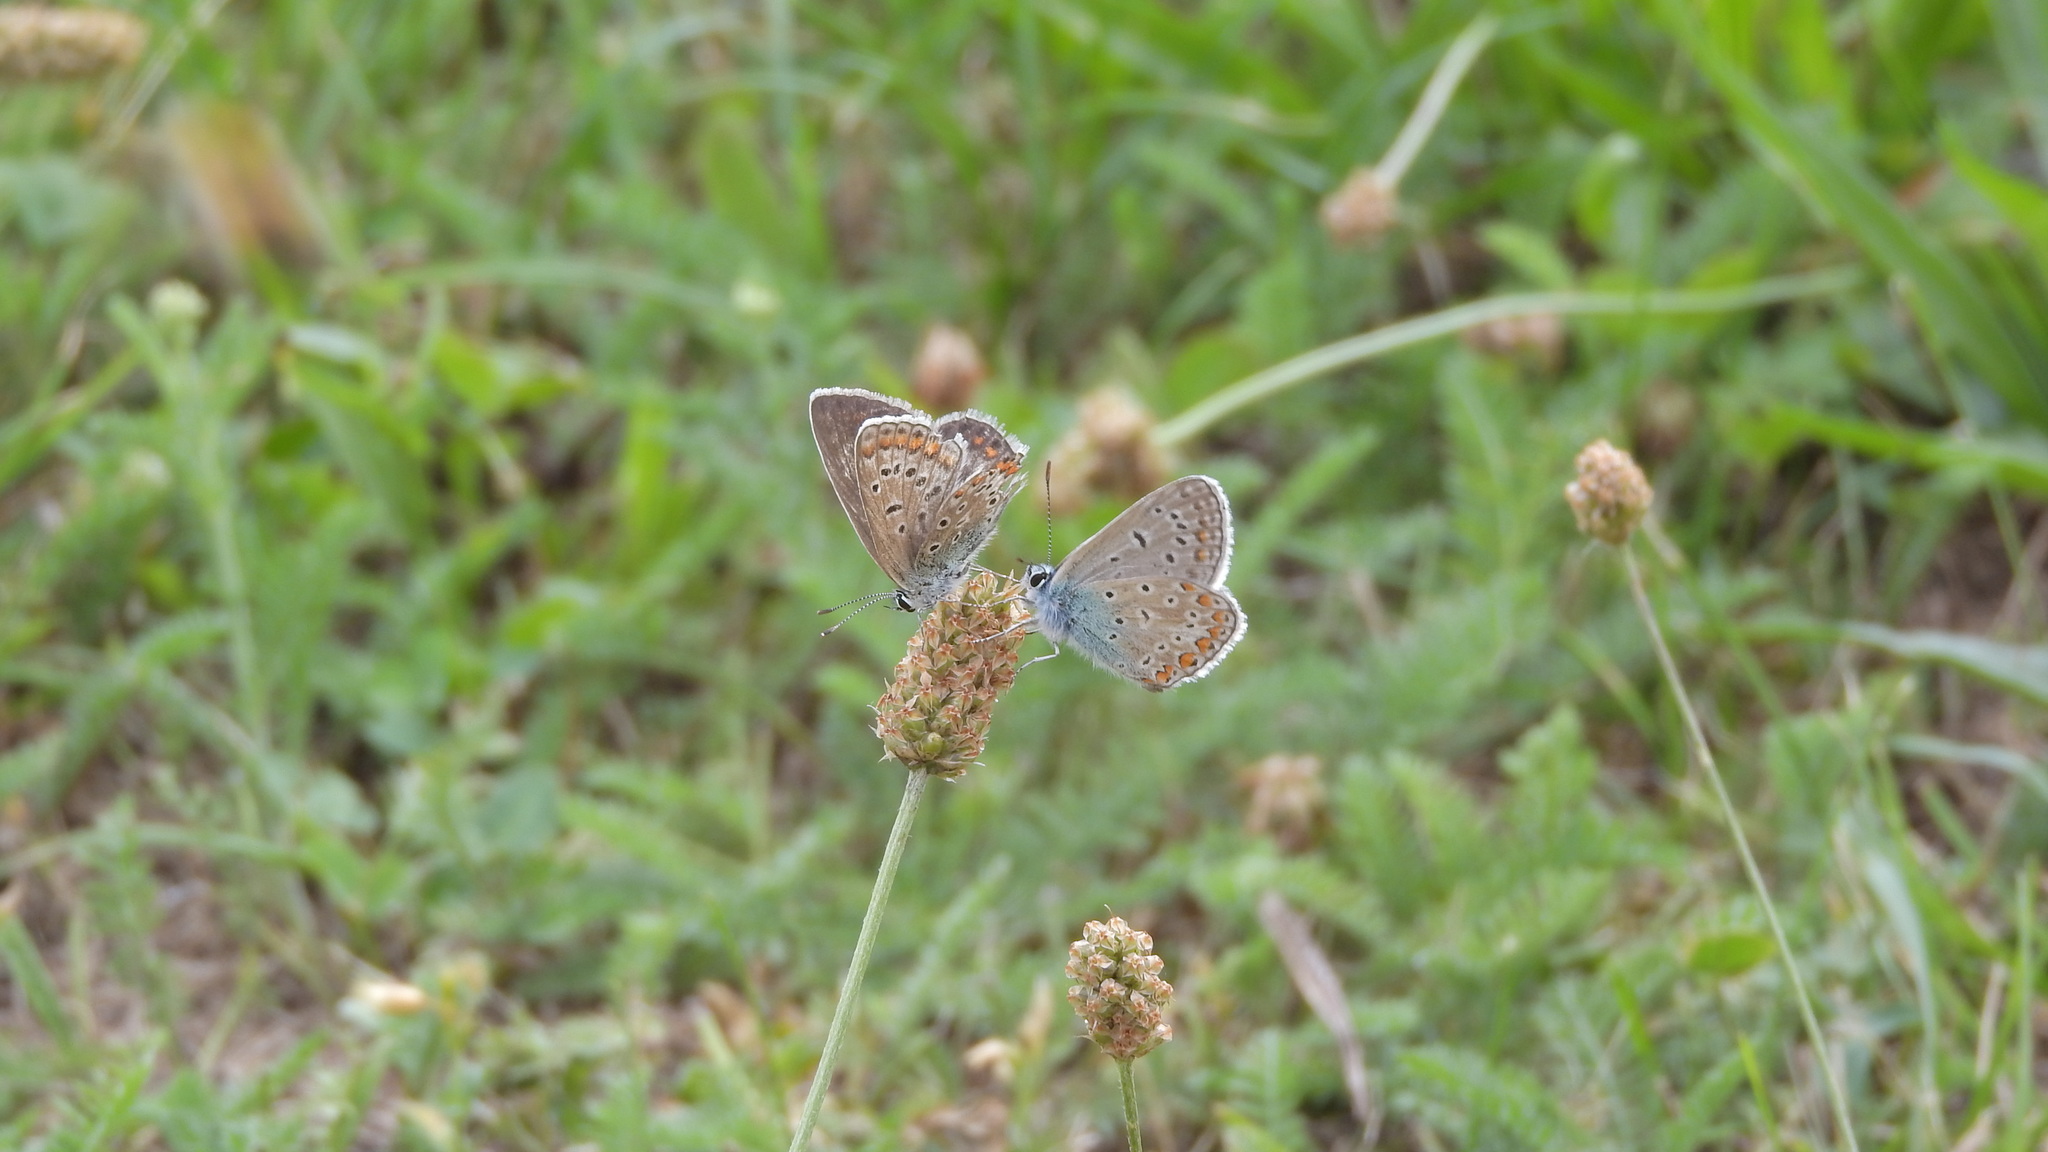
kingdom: Animalia
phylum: Arthropoda
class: Insecta
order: Lepidoptera
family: Lycaenidae
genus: Polyommatus
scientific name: Polyommatus icarus
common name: Common blue
